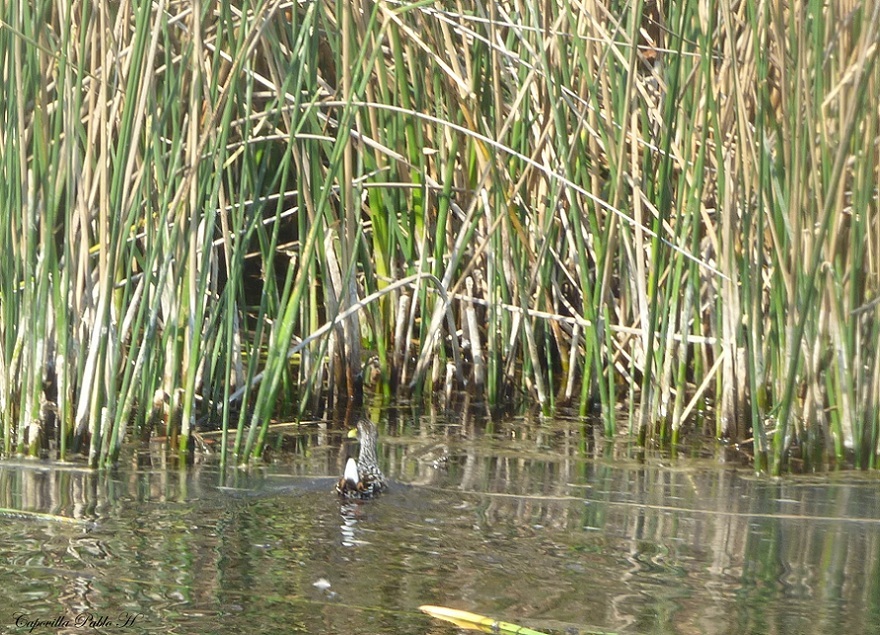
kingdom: Animalia
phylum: Chordata
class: Aves
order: Gruiformes
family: Rallidae
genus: Pardirallus
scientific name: Pardirallus maculatus
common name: Spotted rail
